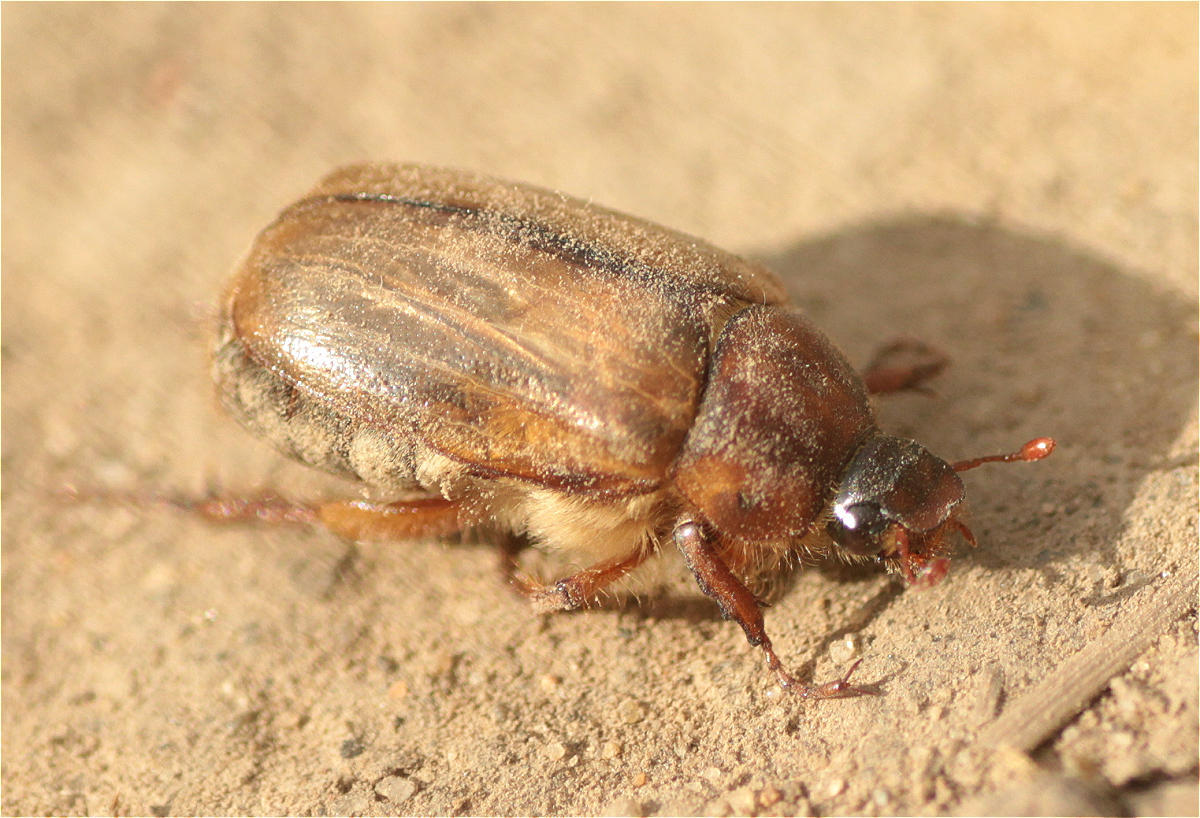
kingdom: Animalia
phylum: Arthropoda
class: Insecta
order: Coleoptera
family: Scarabaeidae
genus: Amphimallon
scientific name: Amphimallon solstitiale
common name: Summer chafer
